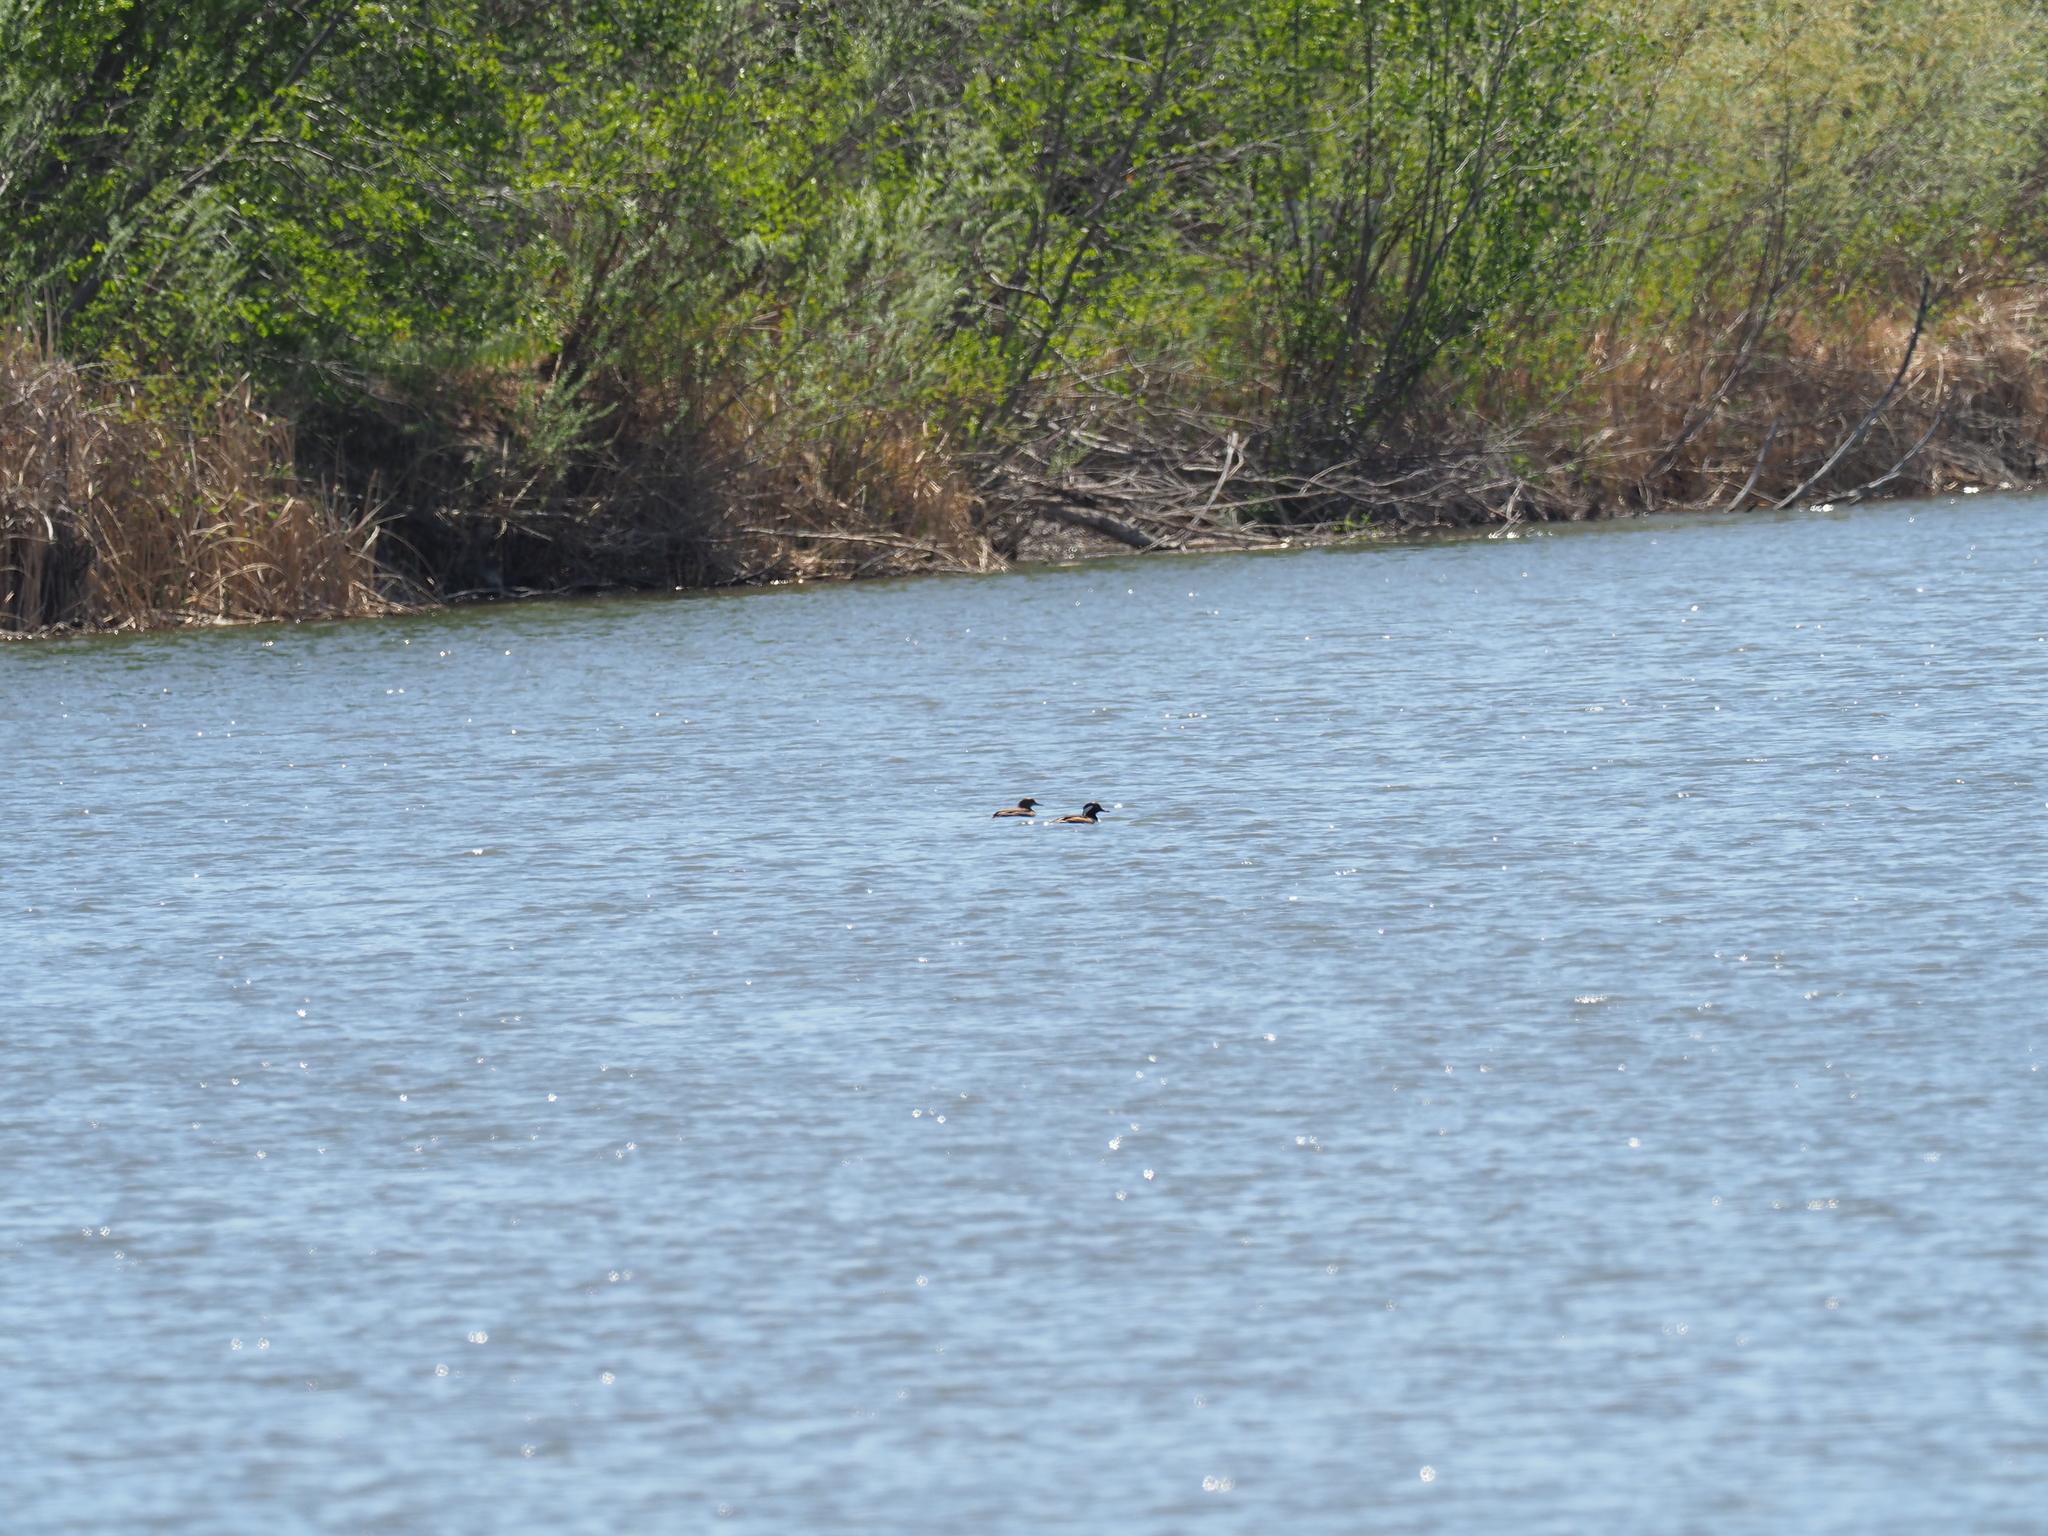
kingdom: Animalia
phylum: Chordata
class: Aves
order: Anseriformes
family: Anatidae
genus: Lophodytes
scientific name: Lophodytes cucullatus
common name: Hooded merganser
